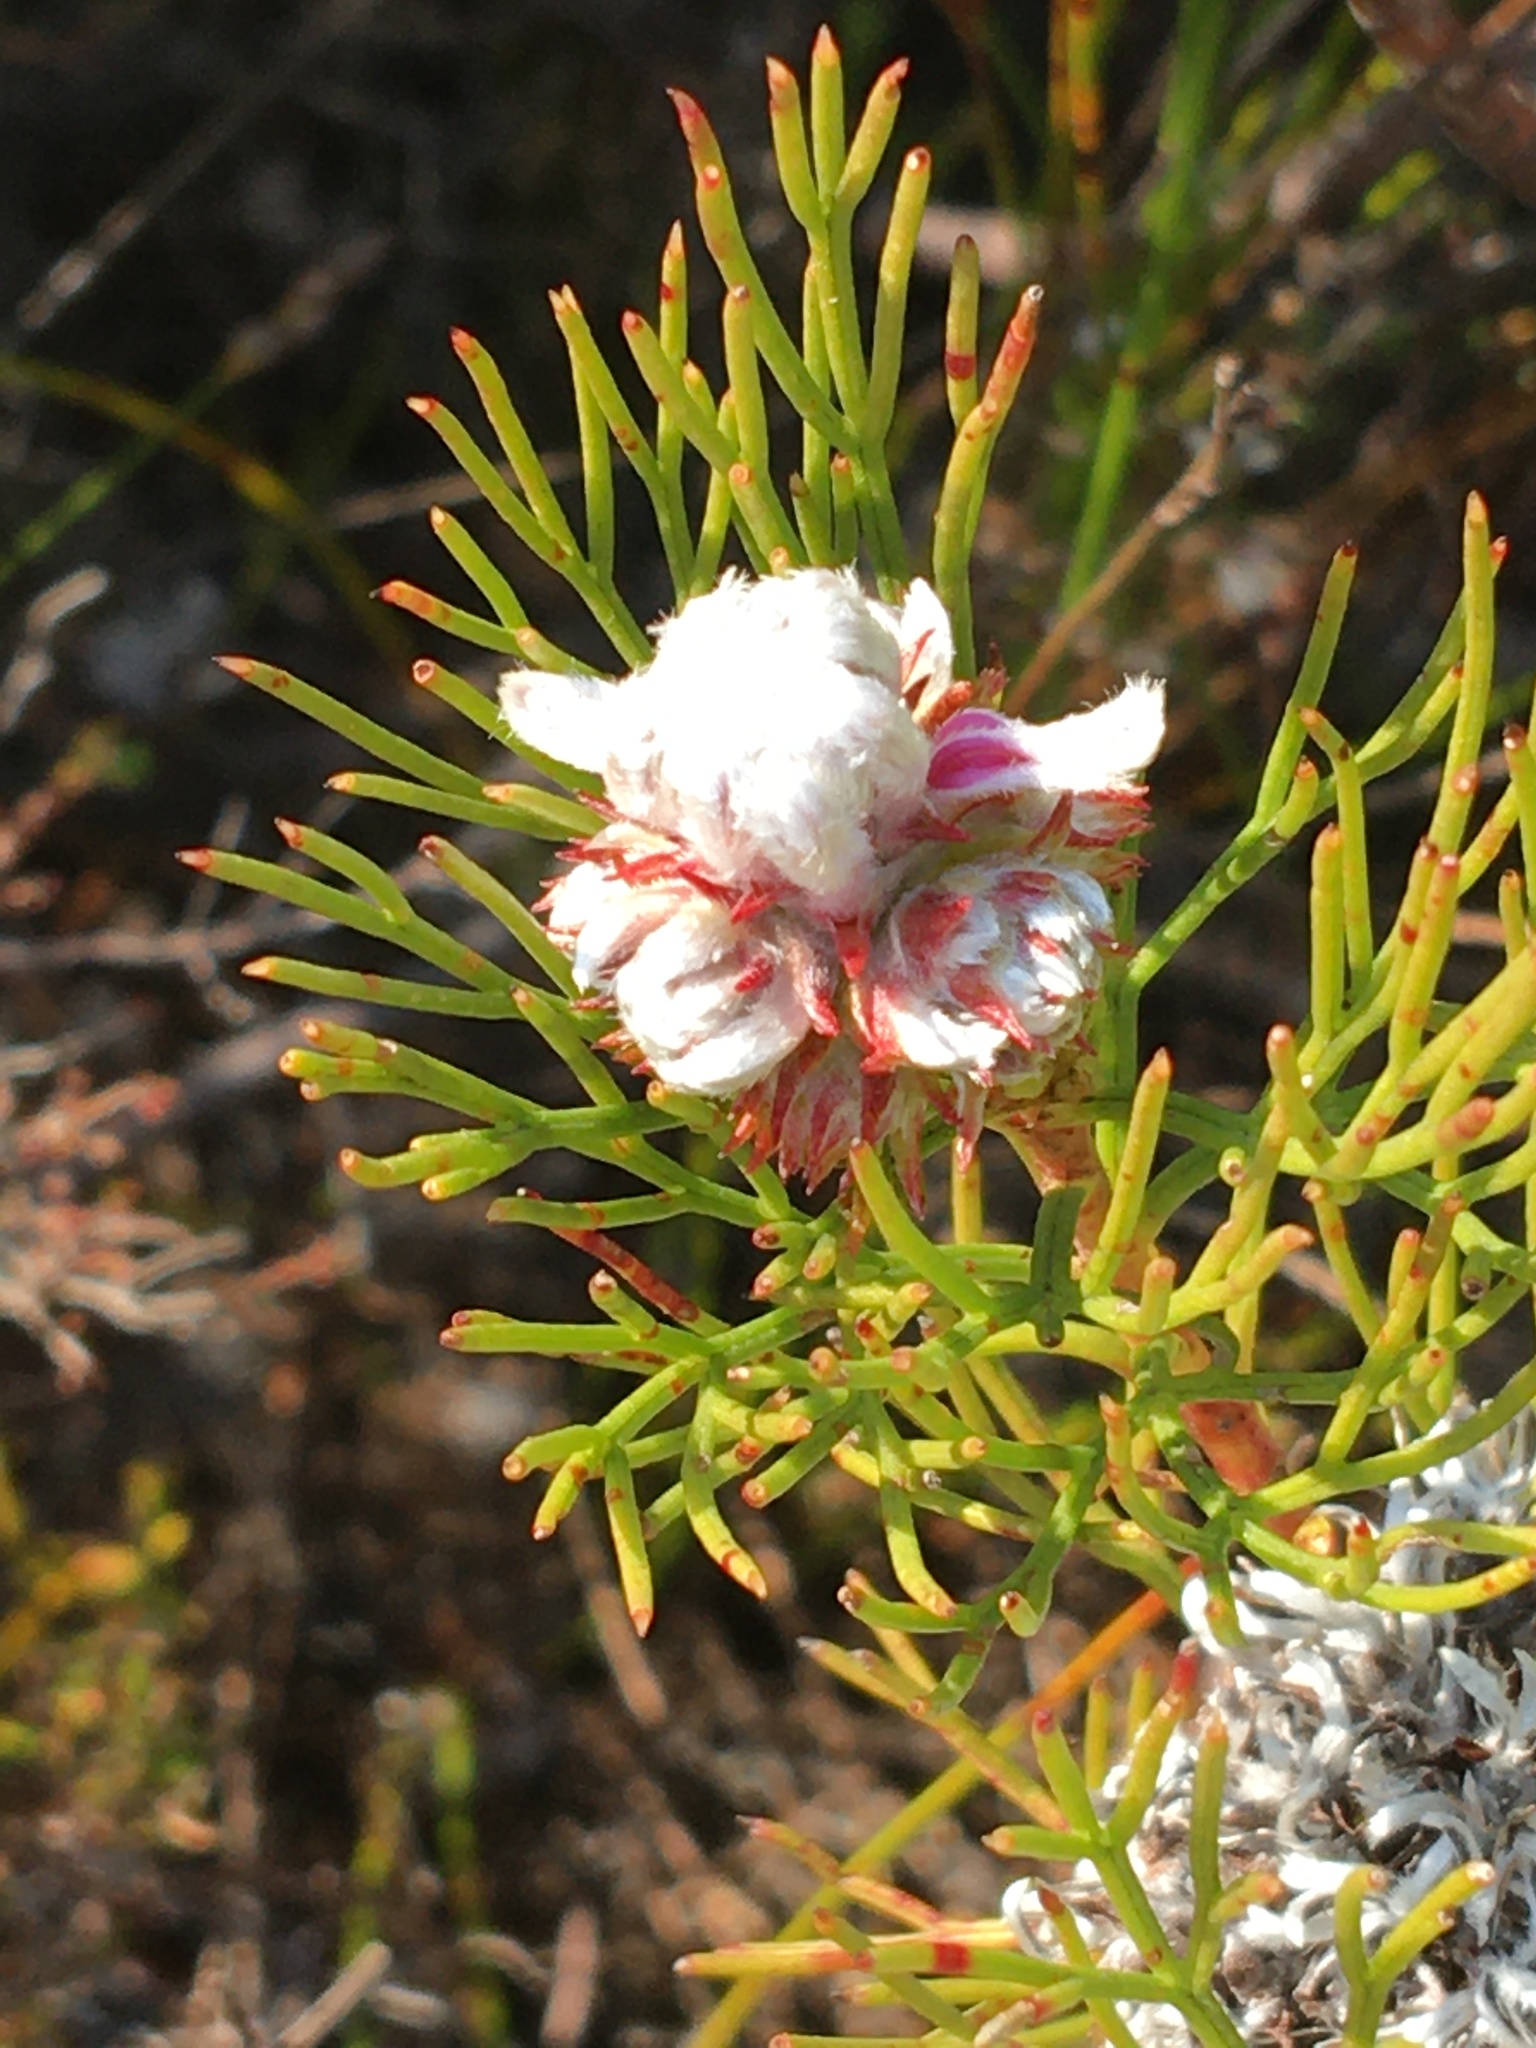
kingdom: Plantae
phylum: Tracheophyta
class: Magnoliopsida
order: Proteales
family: Proteaceae
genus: Serruria
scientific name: Serruria ascendens
